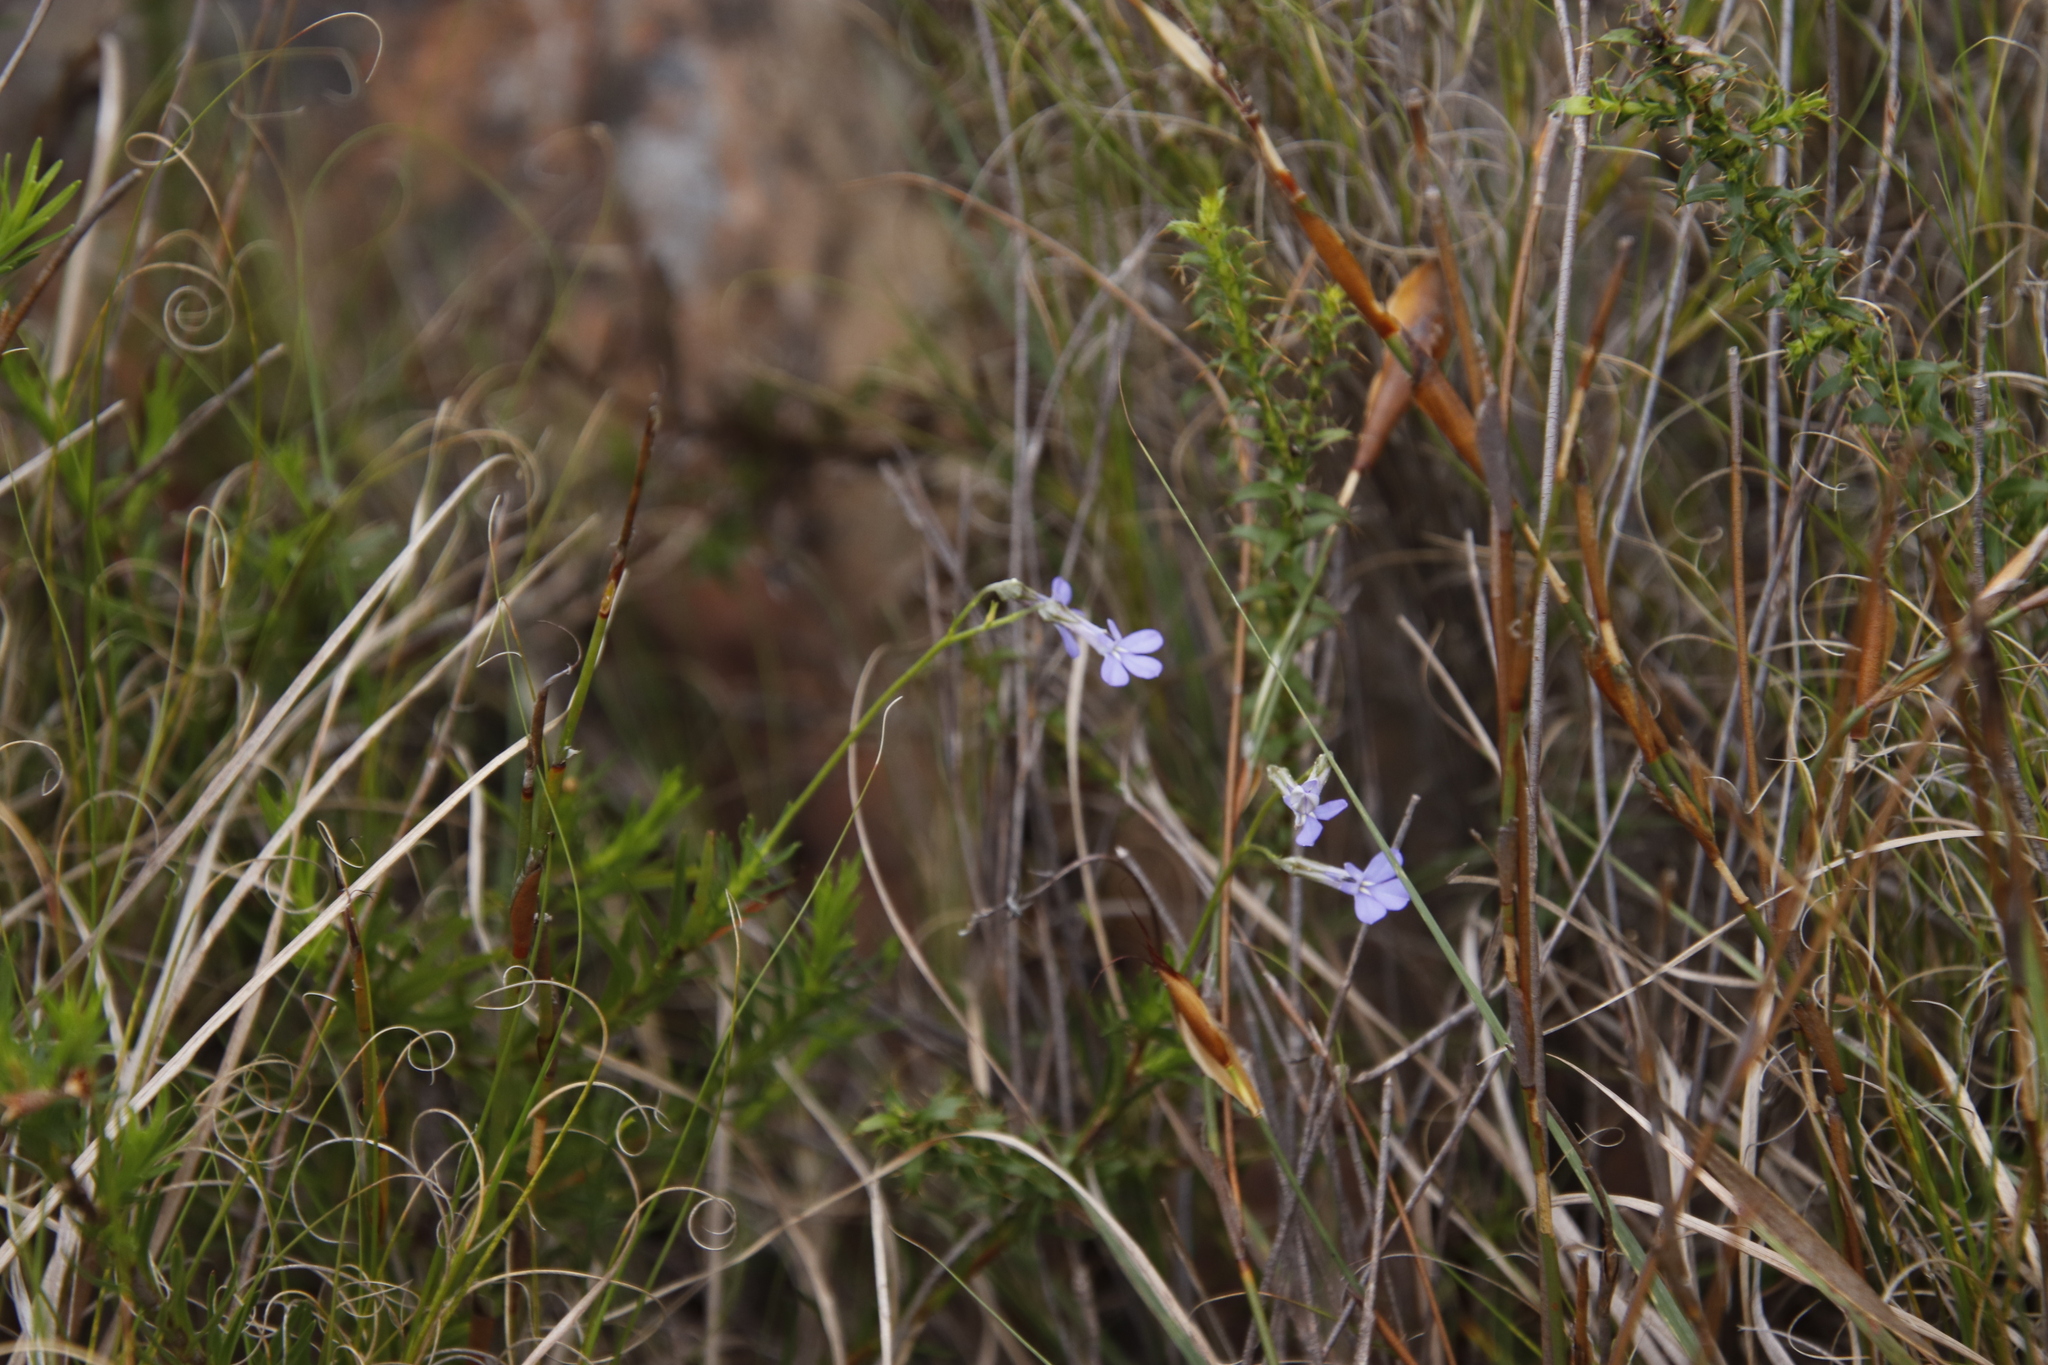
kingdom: Plantae
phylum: Tracheophyta
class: Magnoliopsida
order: Asterales
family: Campanulaceae
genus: Lobelia
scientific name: Lobelia pinifolia
